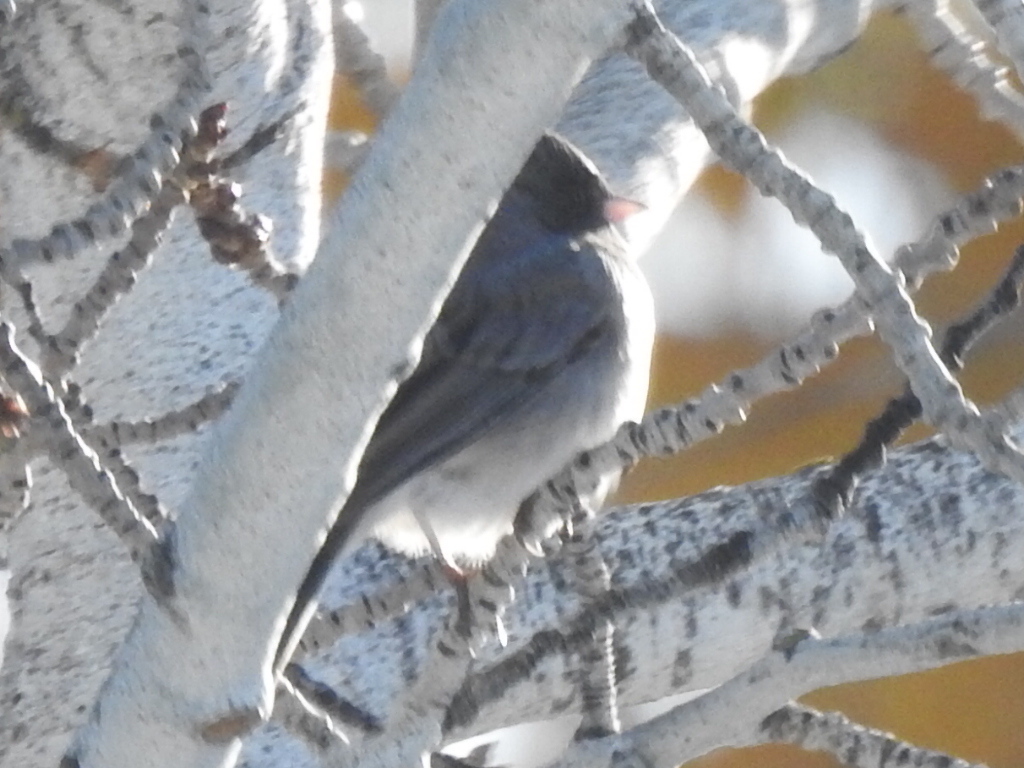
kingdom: Animalia
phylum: Chordata
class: Aves
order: Passeriformes
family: Passerellidae
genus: Junco
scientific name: Junco hyemalis
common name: Dark-eyed junco
